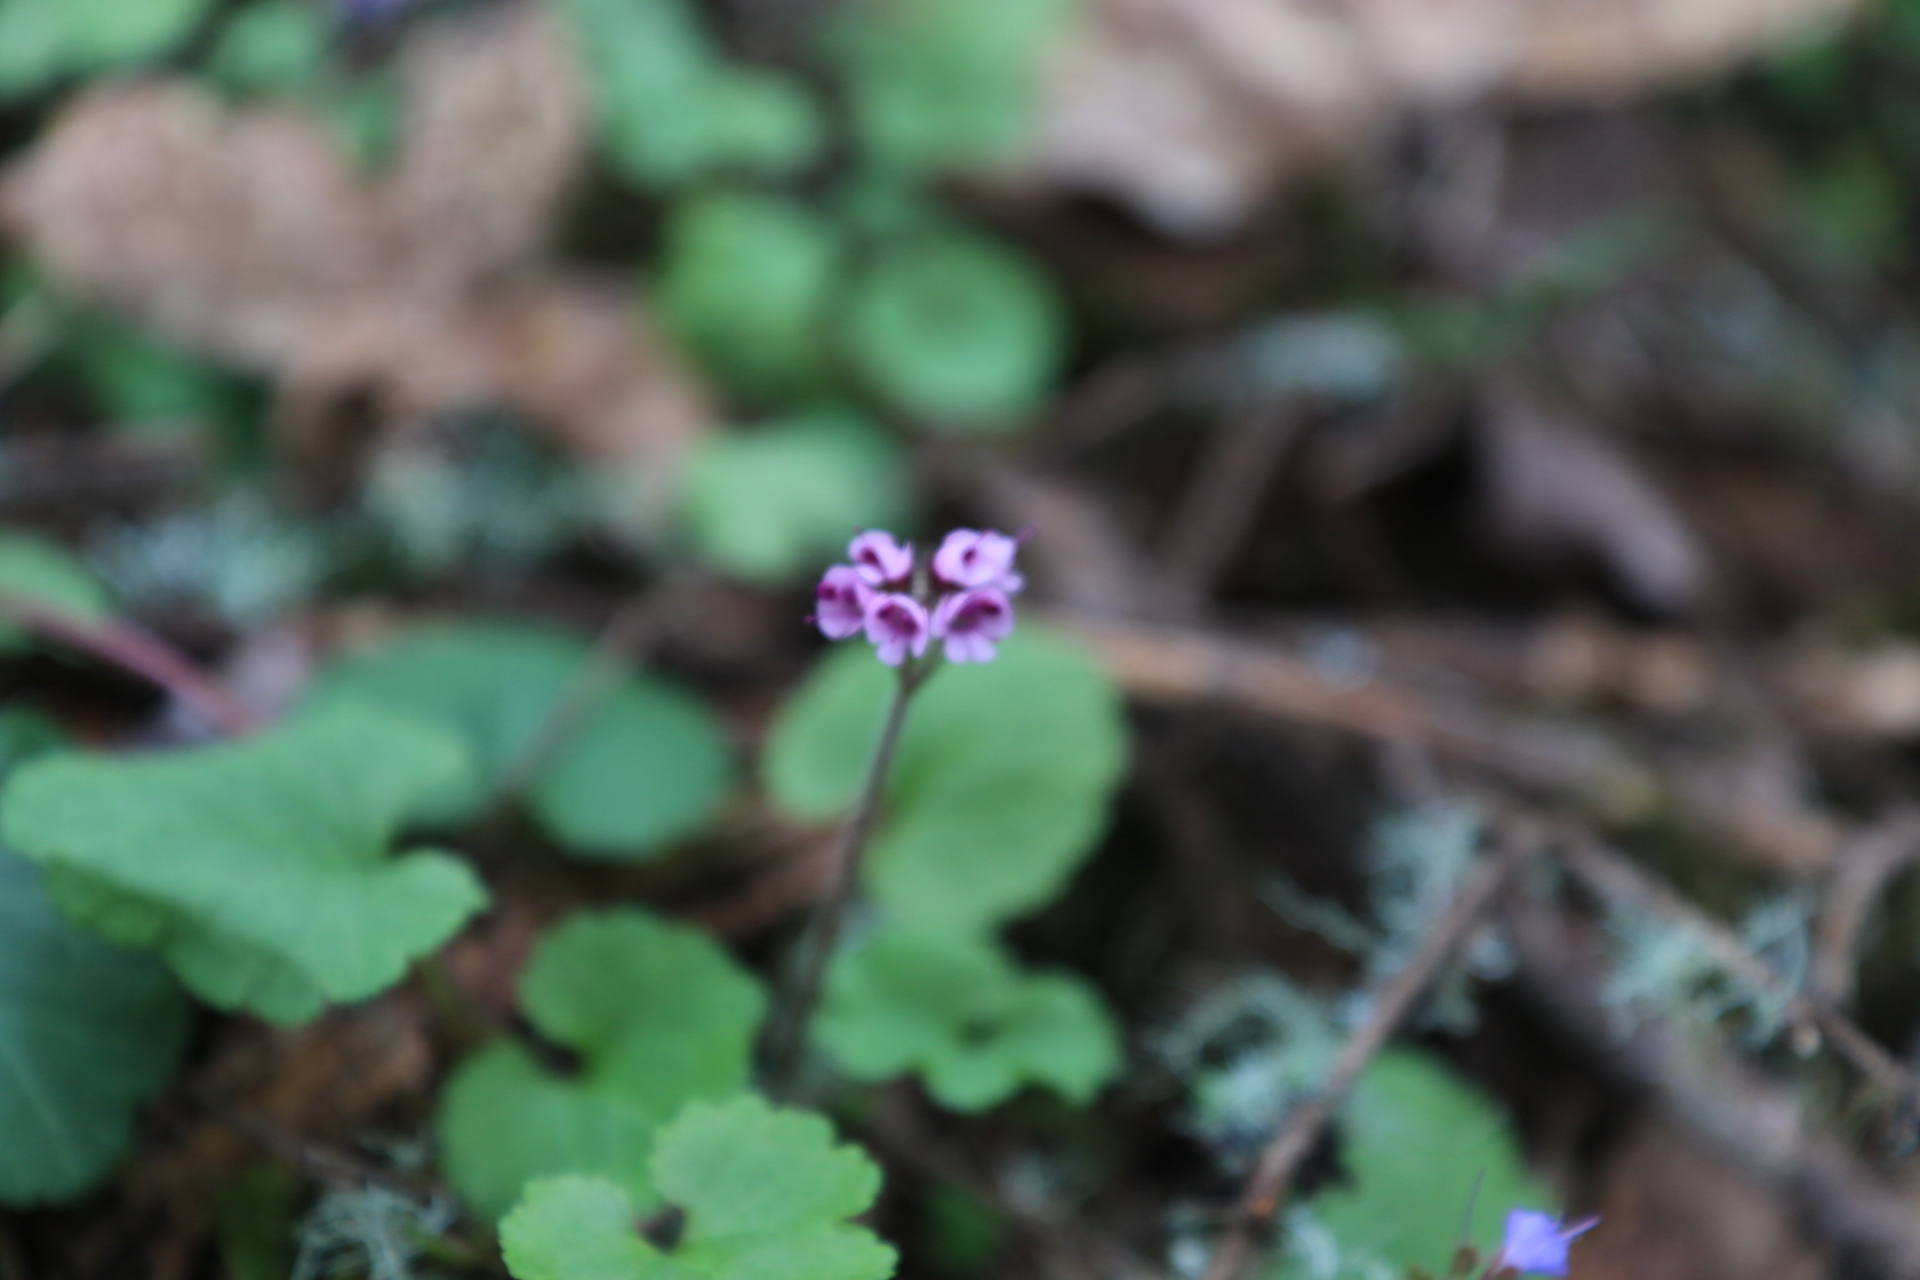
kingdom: Plantae
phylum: Tracheophyta
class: Magnoliopsida
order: Lamiales
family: Plantaginaceae
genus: Synthyris
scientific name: Synthyris reniformis
